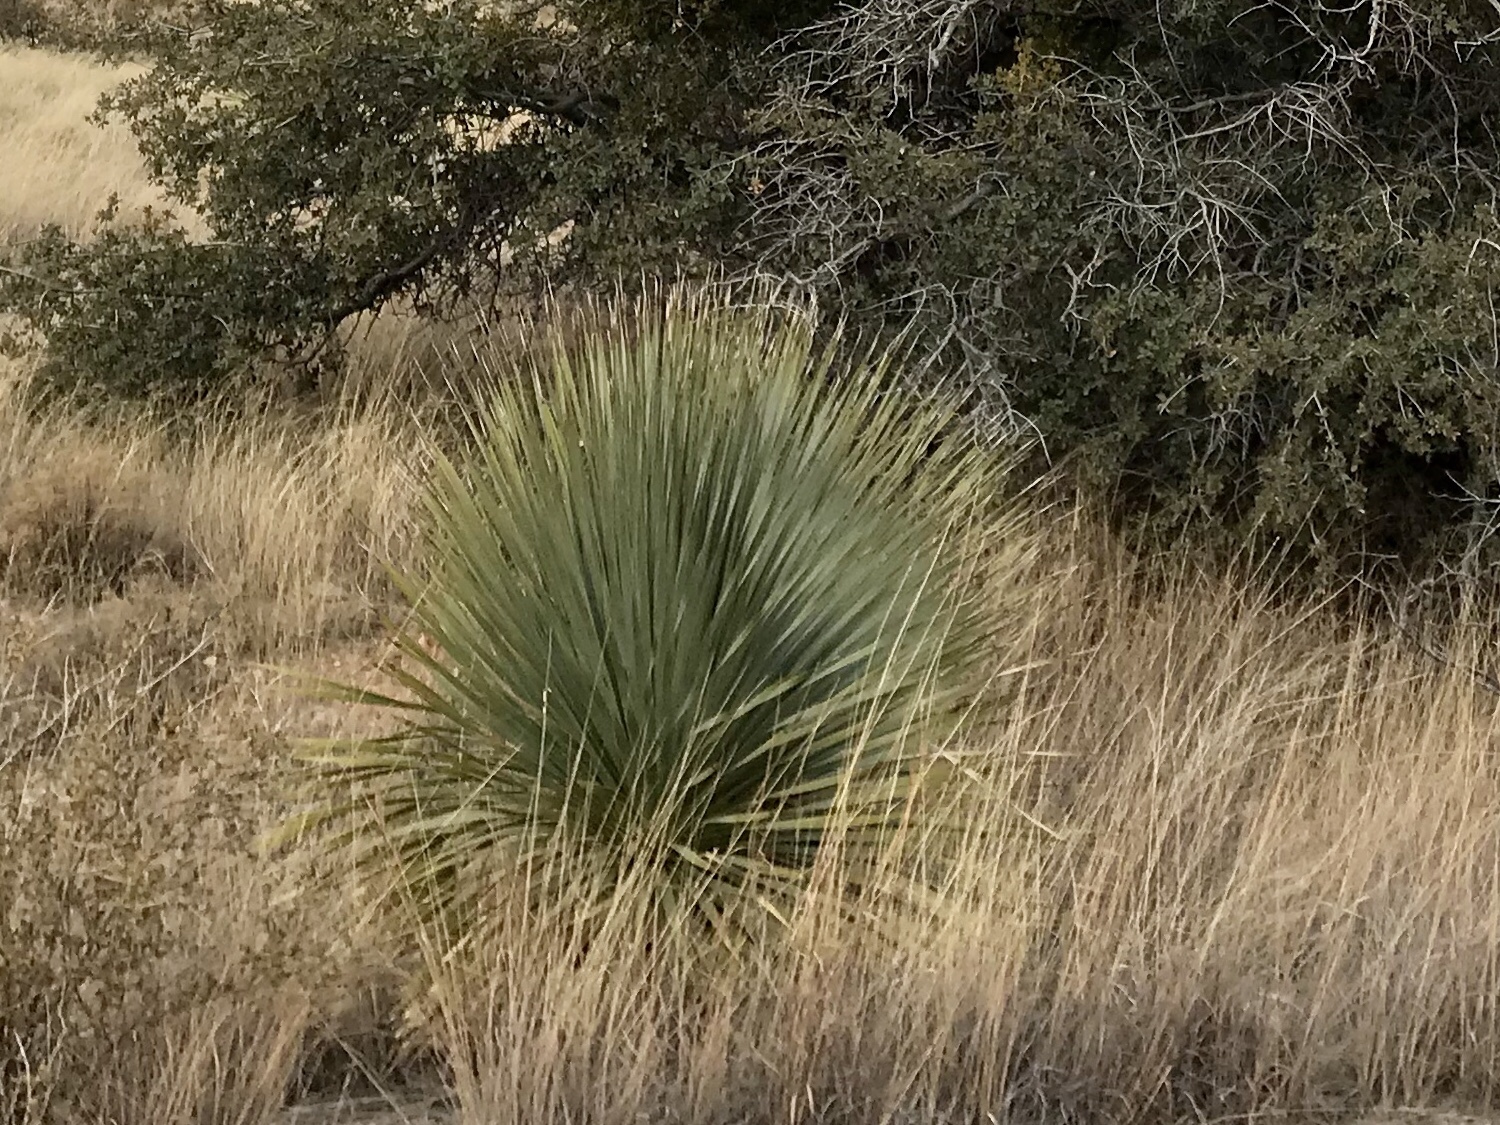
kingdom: Plantae
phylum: Tracheophyta
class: Liliopsida
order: Asparagales
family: Asparagaceae
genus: Dasylirion
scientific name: Dasylirion wheeleri
